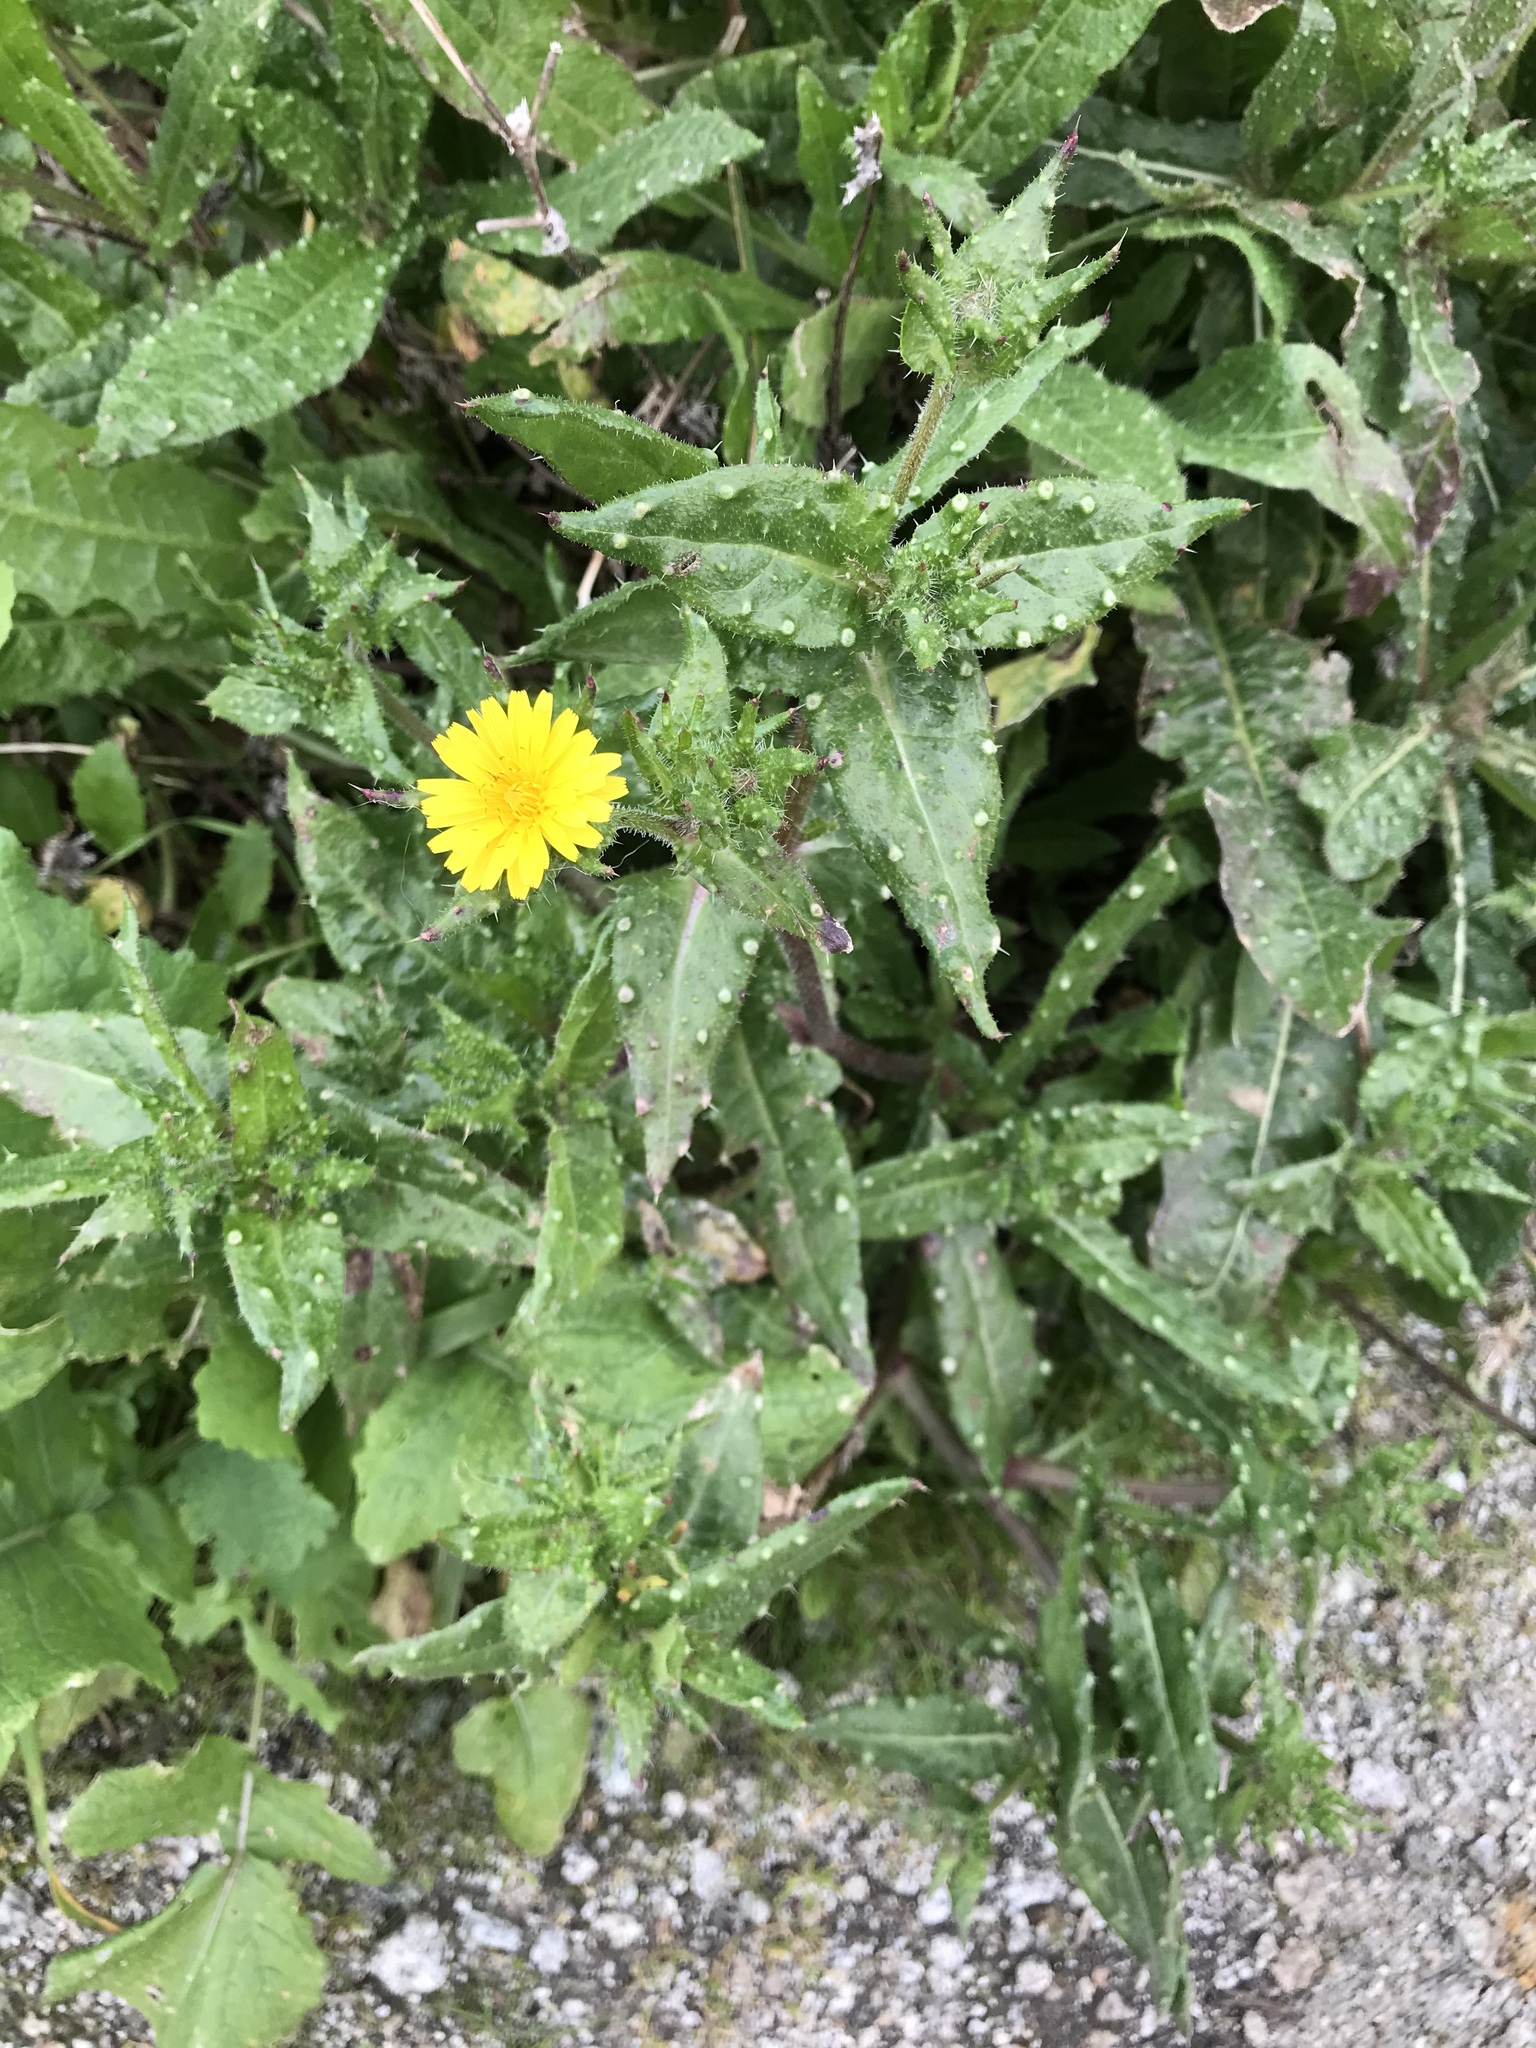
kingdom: Plantae
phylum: Tracheophyta
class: Magnoliopsida
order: Asterales
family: Asteraceae
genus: Helminthotheca
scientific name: Helminthotheca echioides
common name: Ox-tongue
